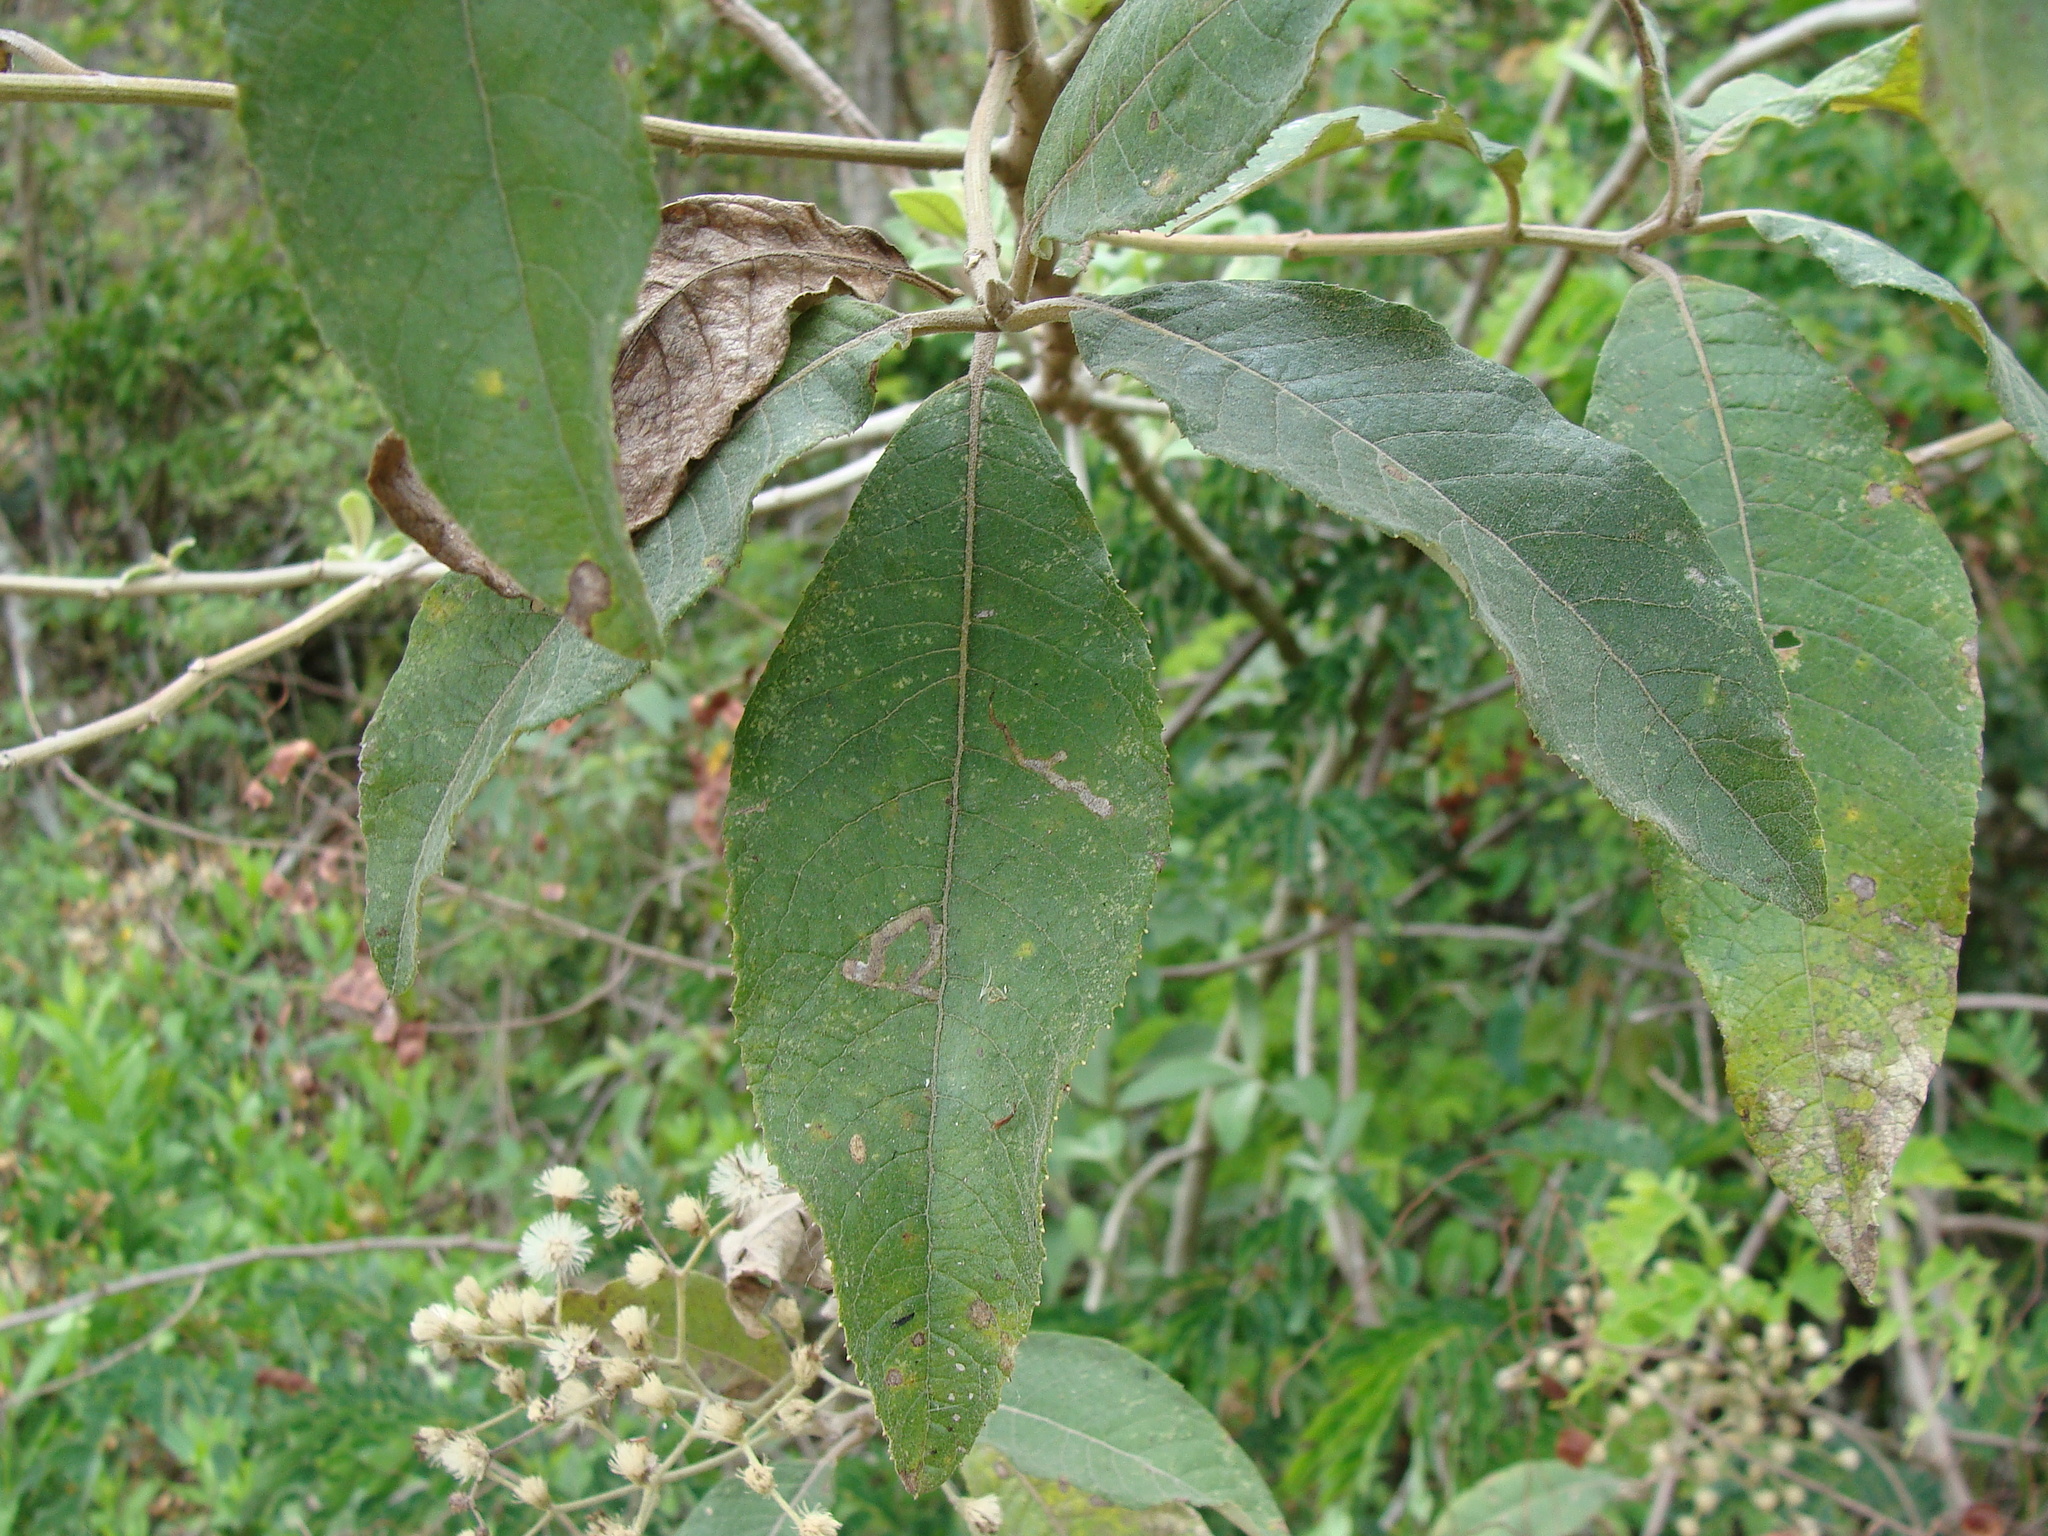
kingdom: Plantae
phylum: Tracheophyta
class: Magnoliopsida
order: Asterales
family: Asteraceae
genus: Lepidaploa
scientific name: Lepidaploa polypleura
